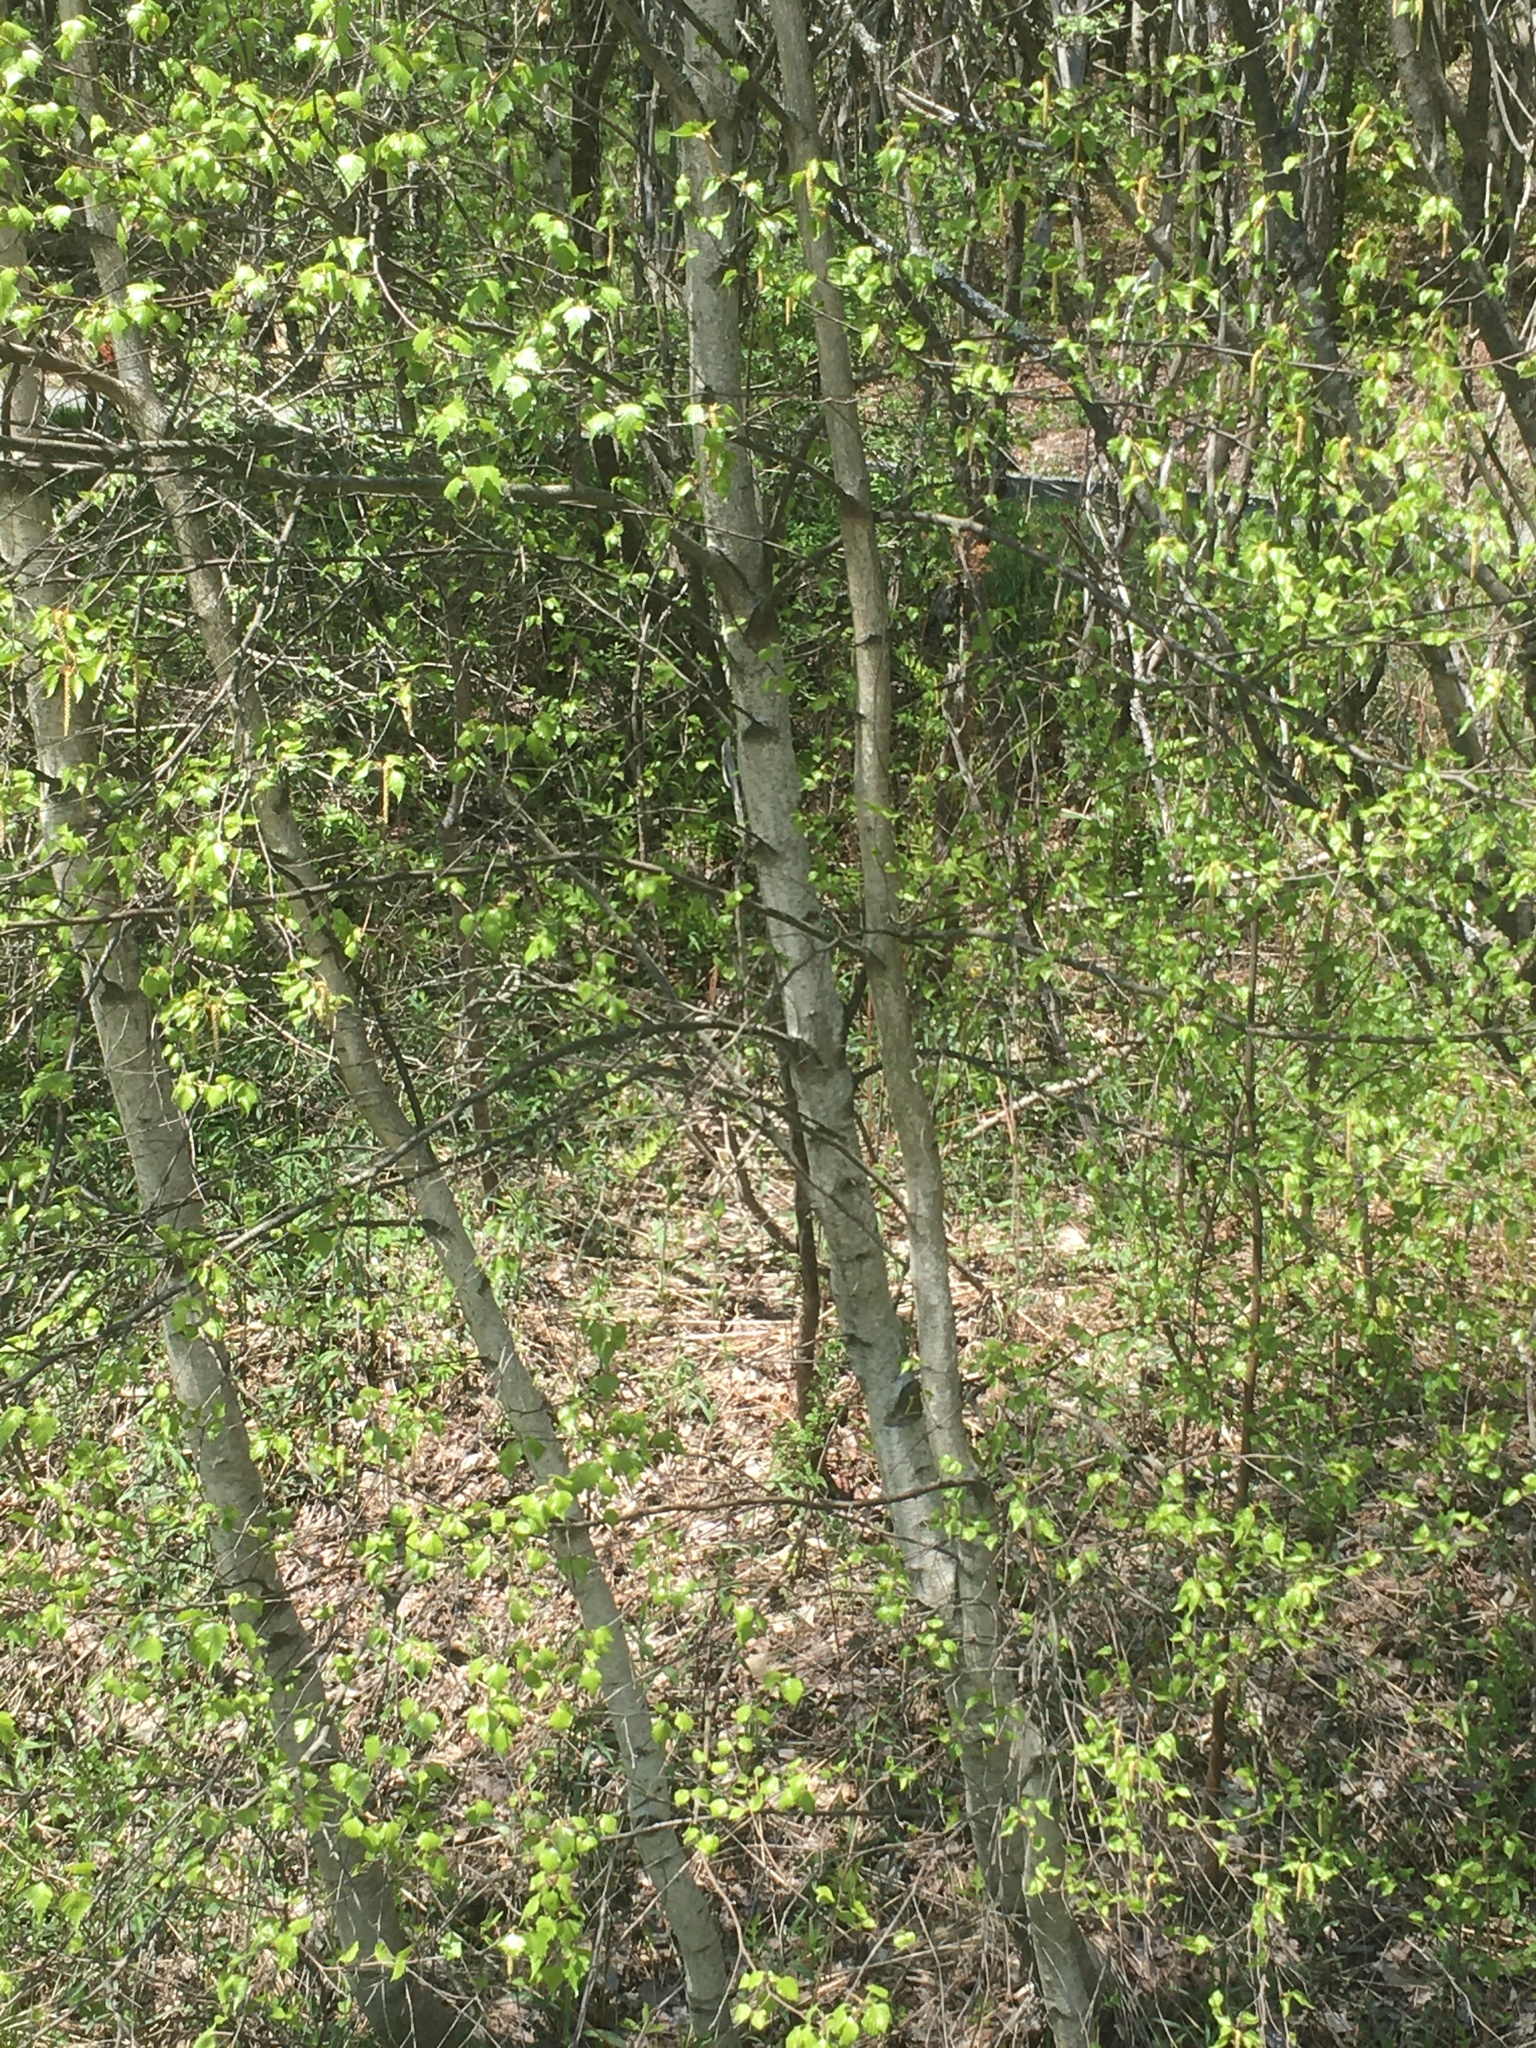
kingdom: Plantae
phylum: Tracheophyta
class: Magnoliopsida
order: Fagales
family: Betulaceae
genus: Betula
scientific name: Betula populifolia
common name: Fire birch
